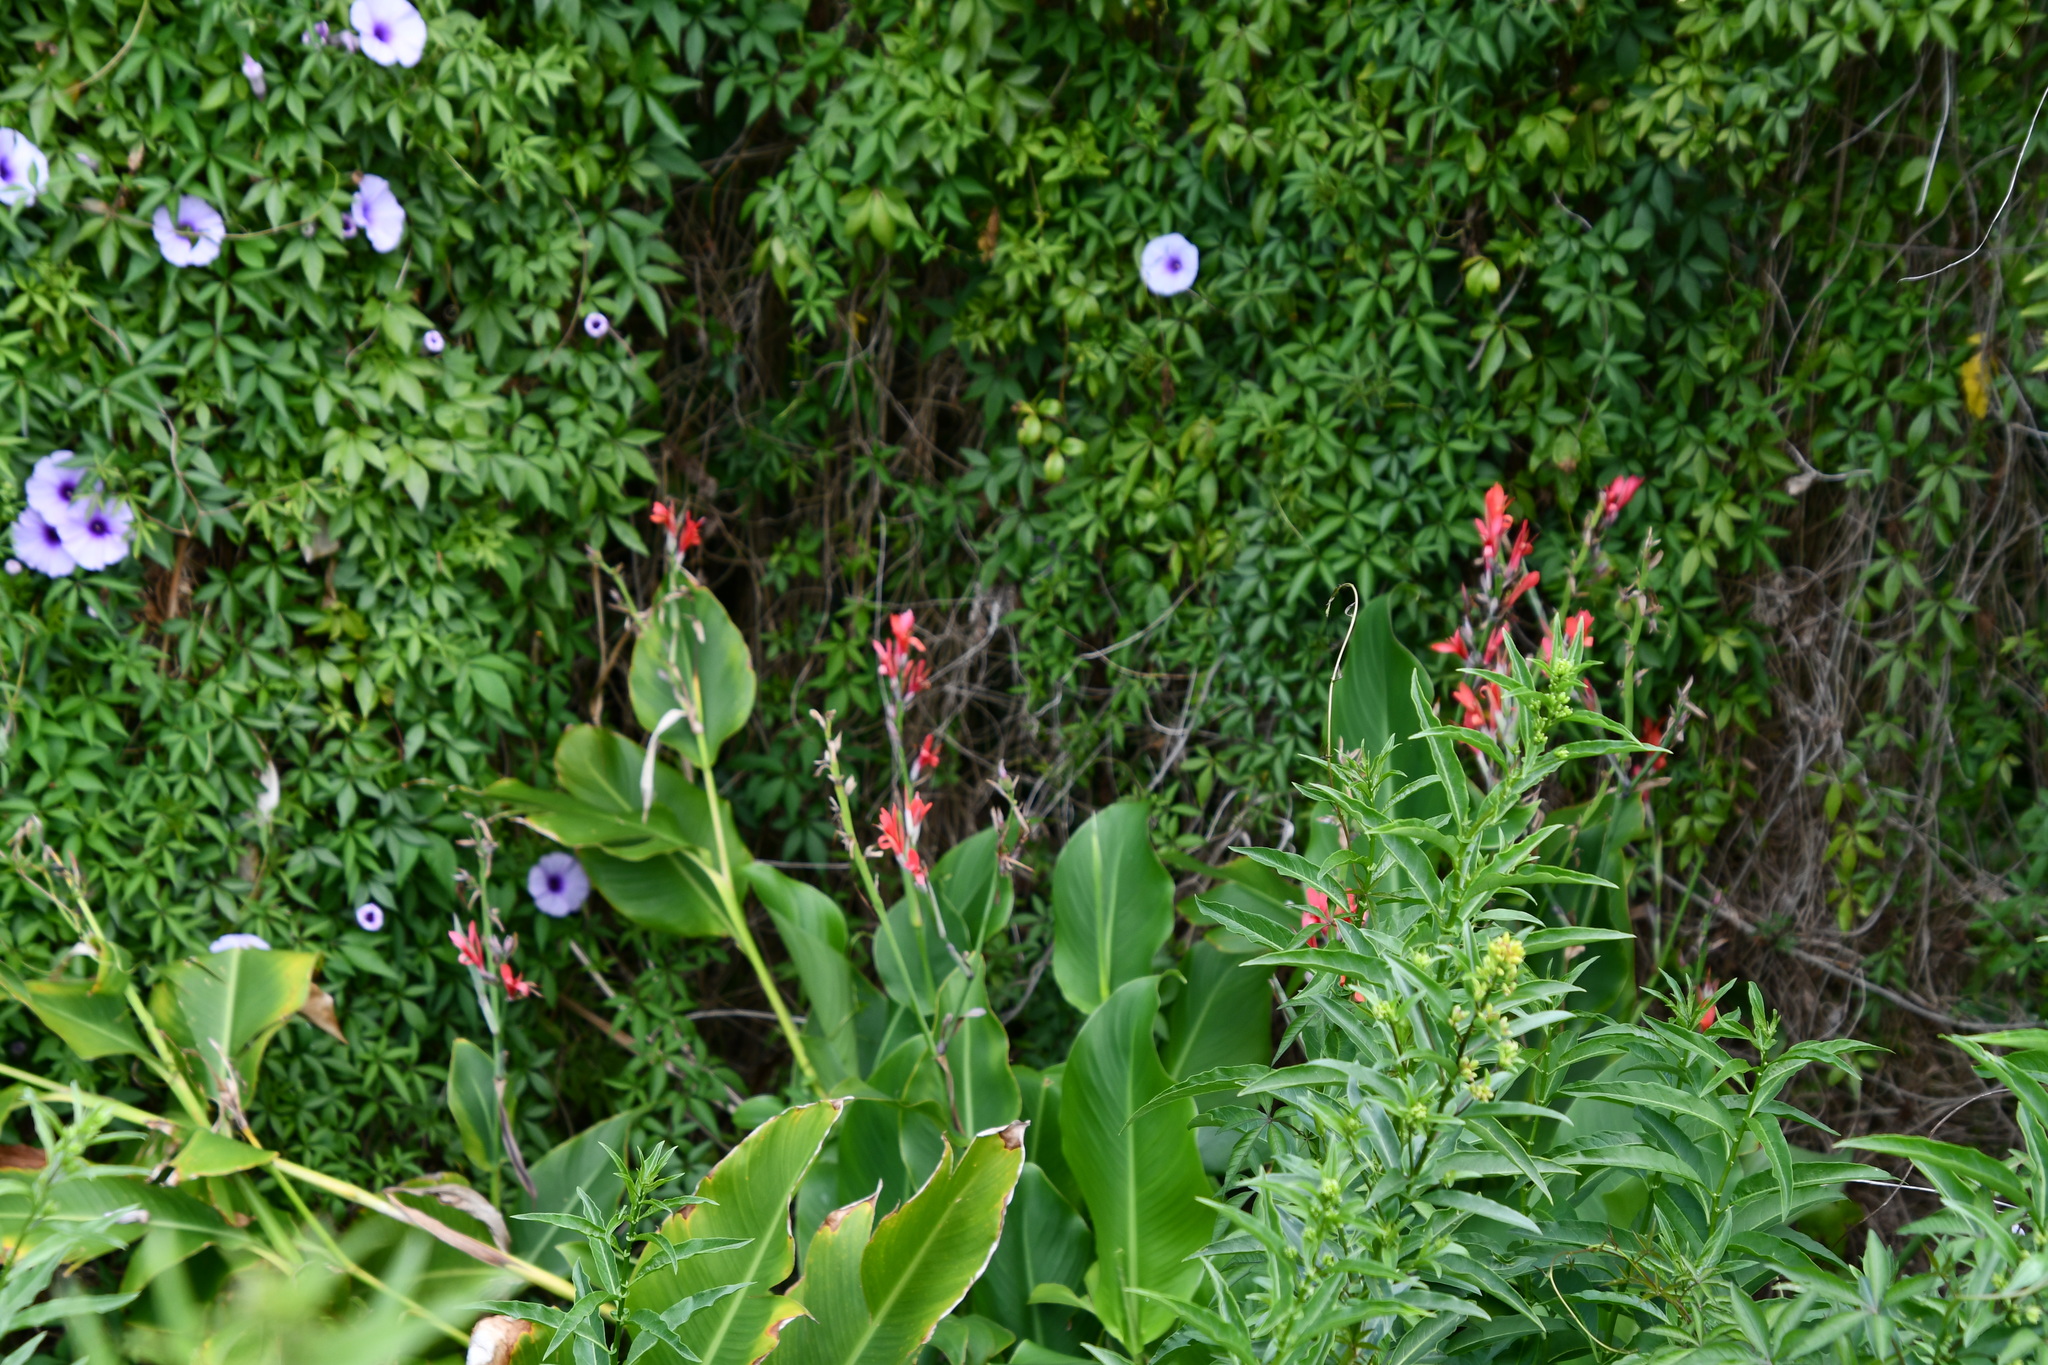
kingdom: Plantae
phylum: Tracheophyta
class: Liliopsida
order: Zingiberales
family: Cannaceae
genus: Canna
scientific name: Canna indica
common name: Indian shot
